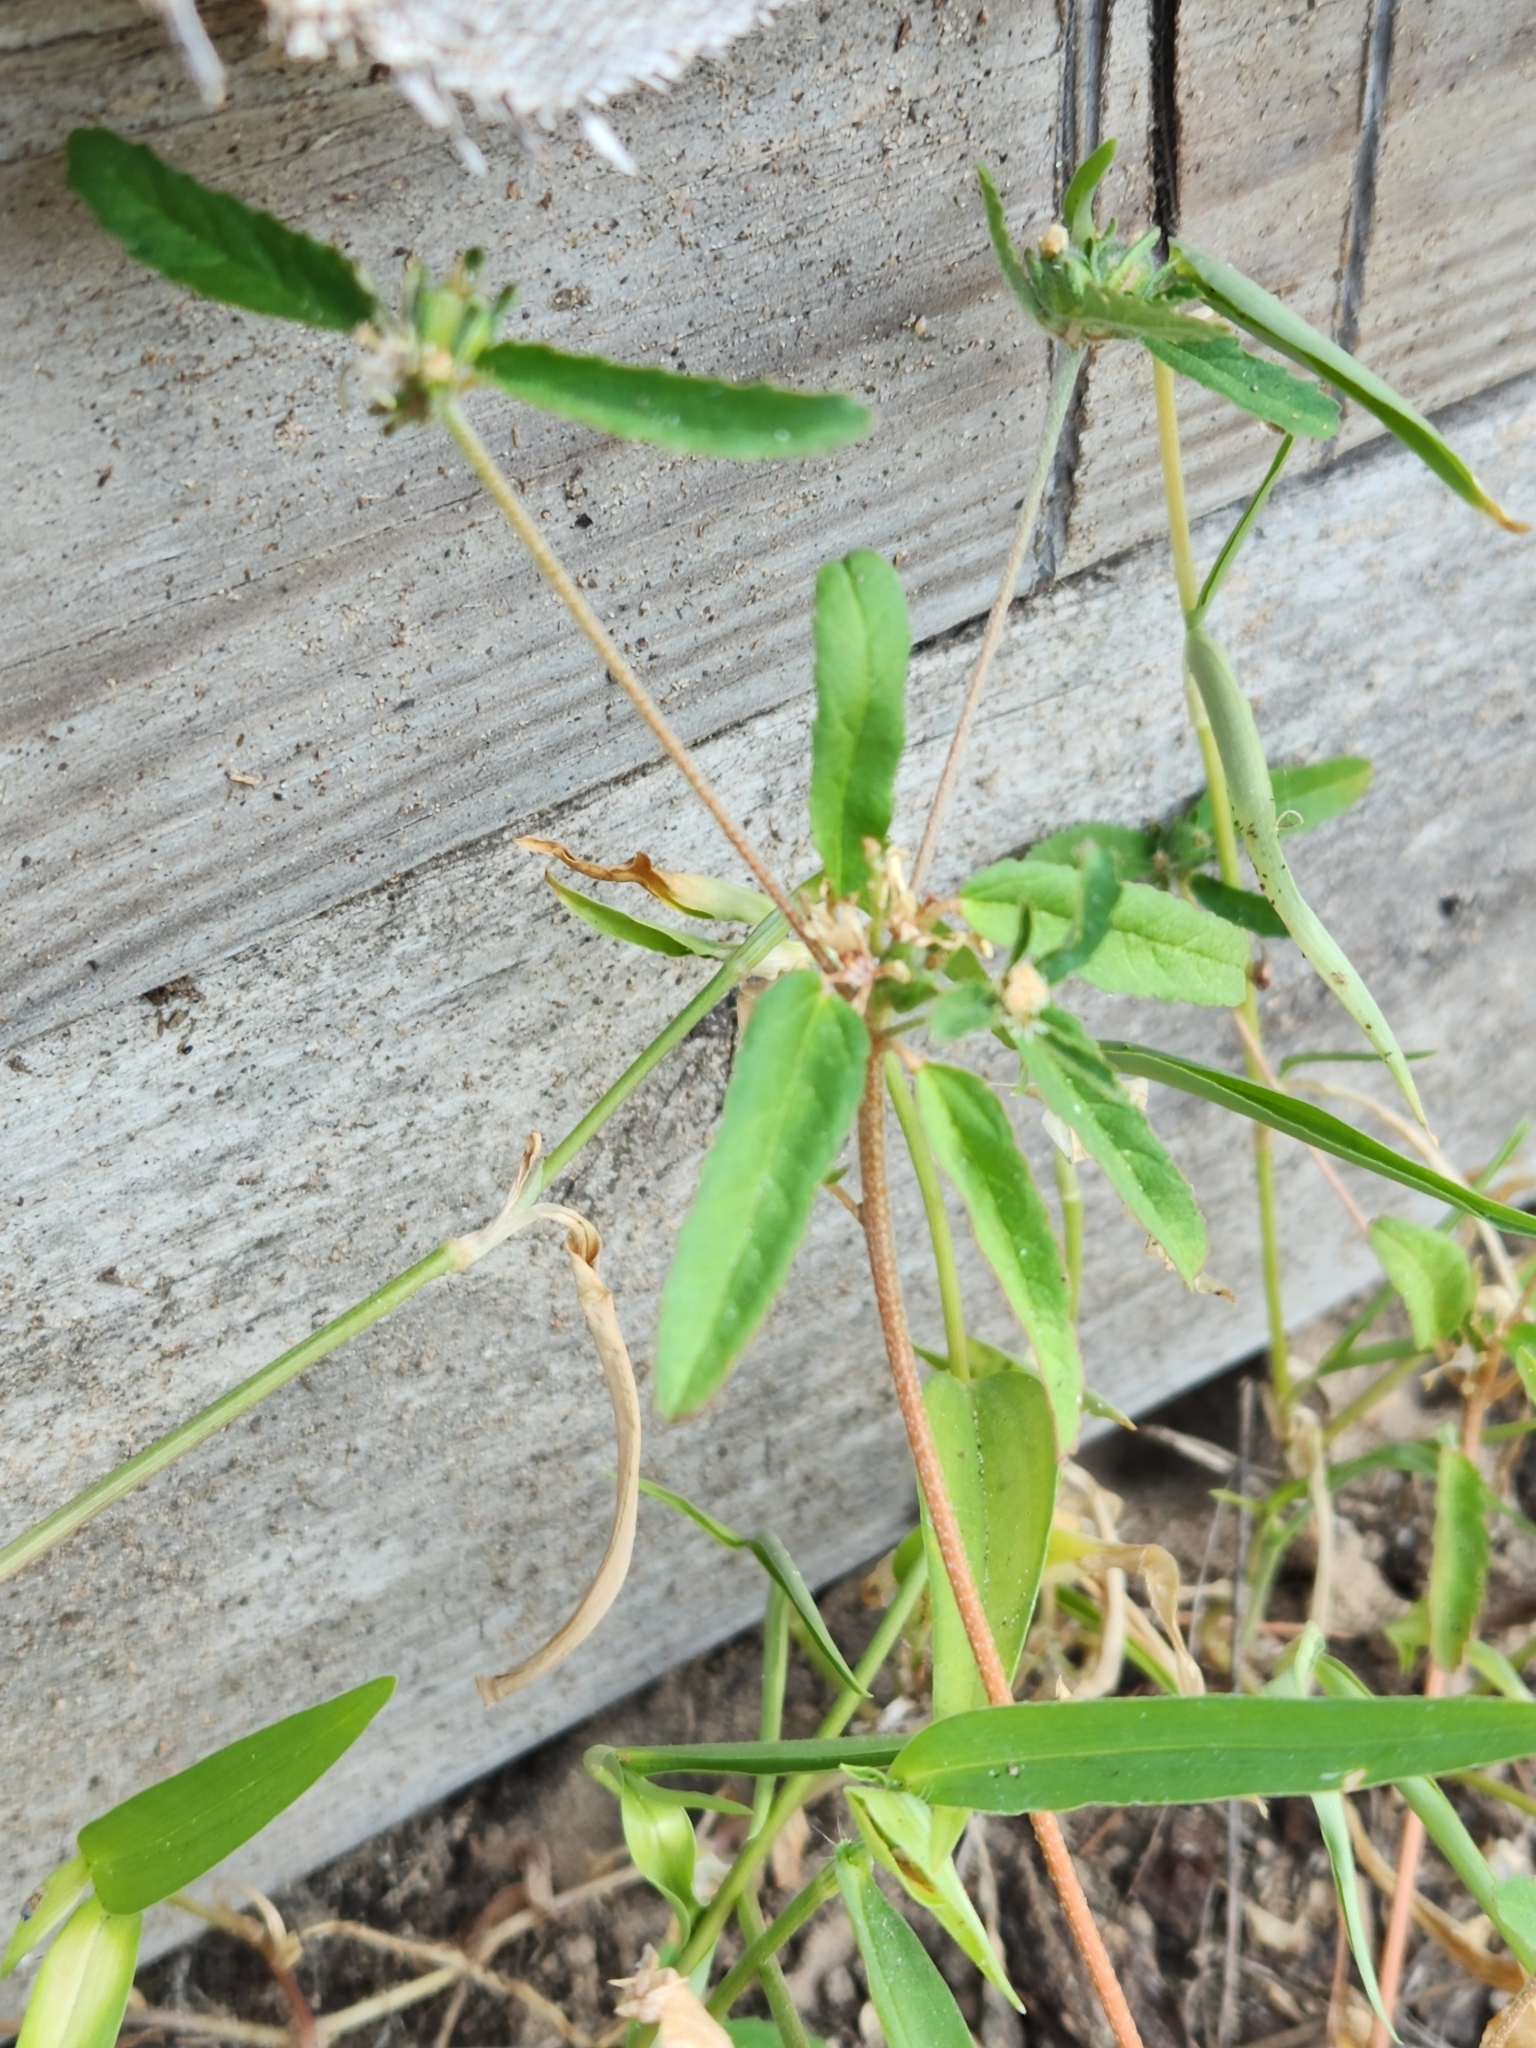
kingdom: Plantae
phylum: Tracheophyta
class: Magnoliopsida
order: Malpighiales
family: Euphorbiaceae
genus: Croton
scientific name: Croton glandulosus
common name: Tropic croton
